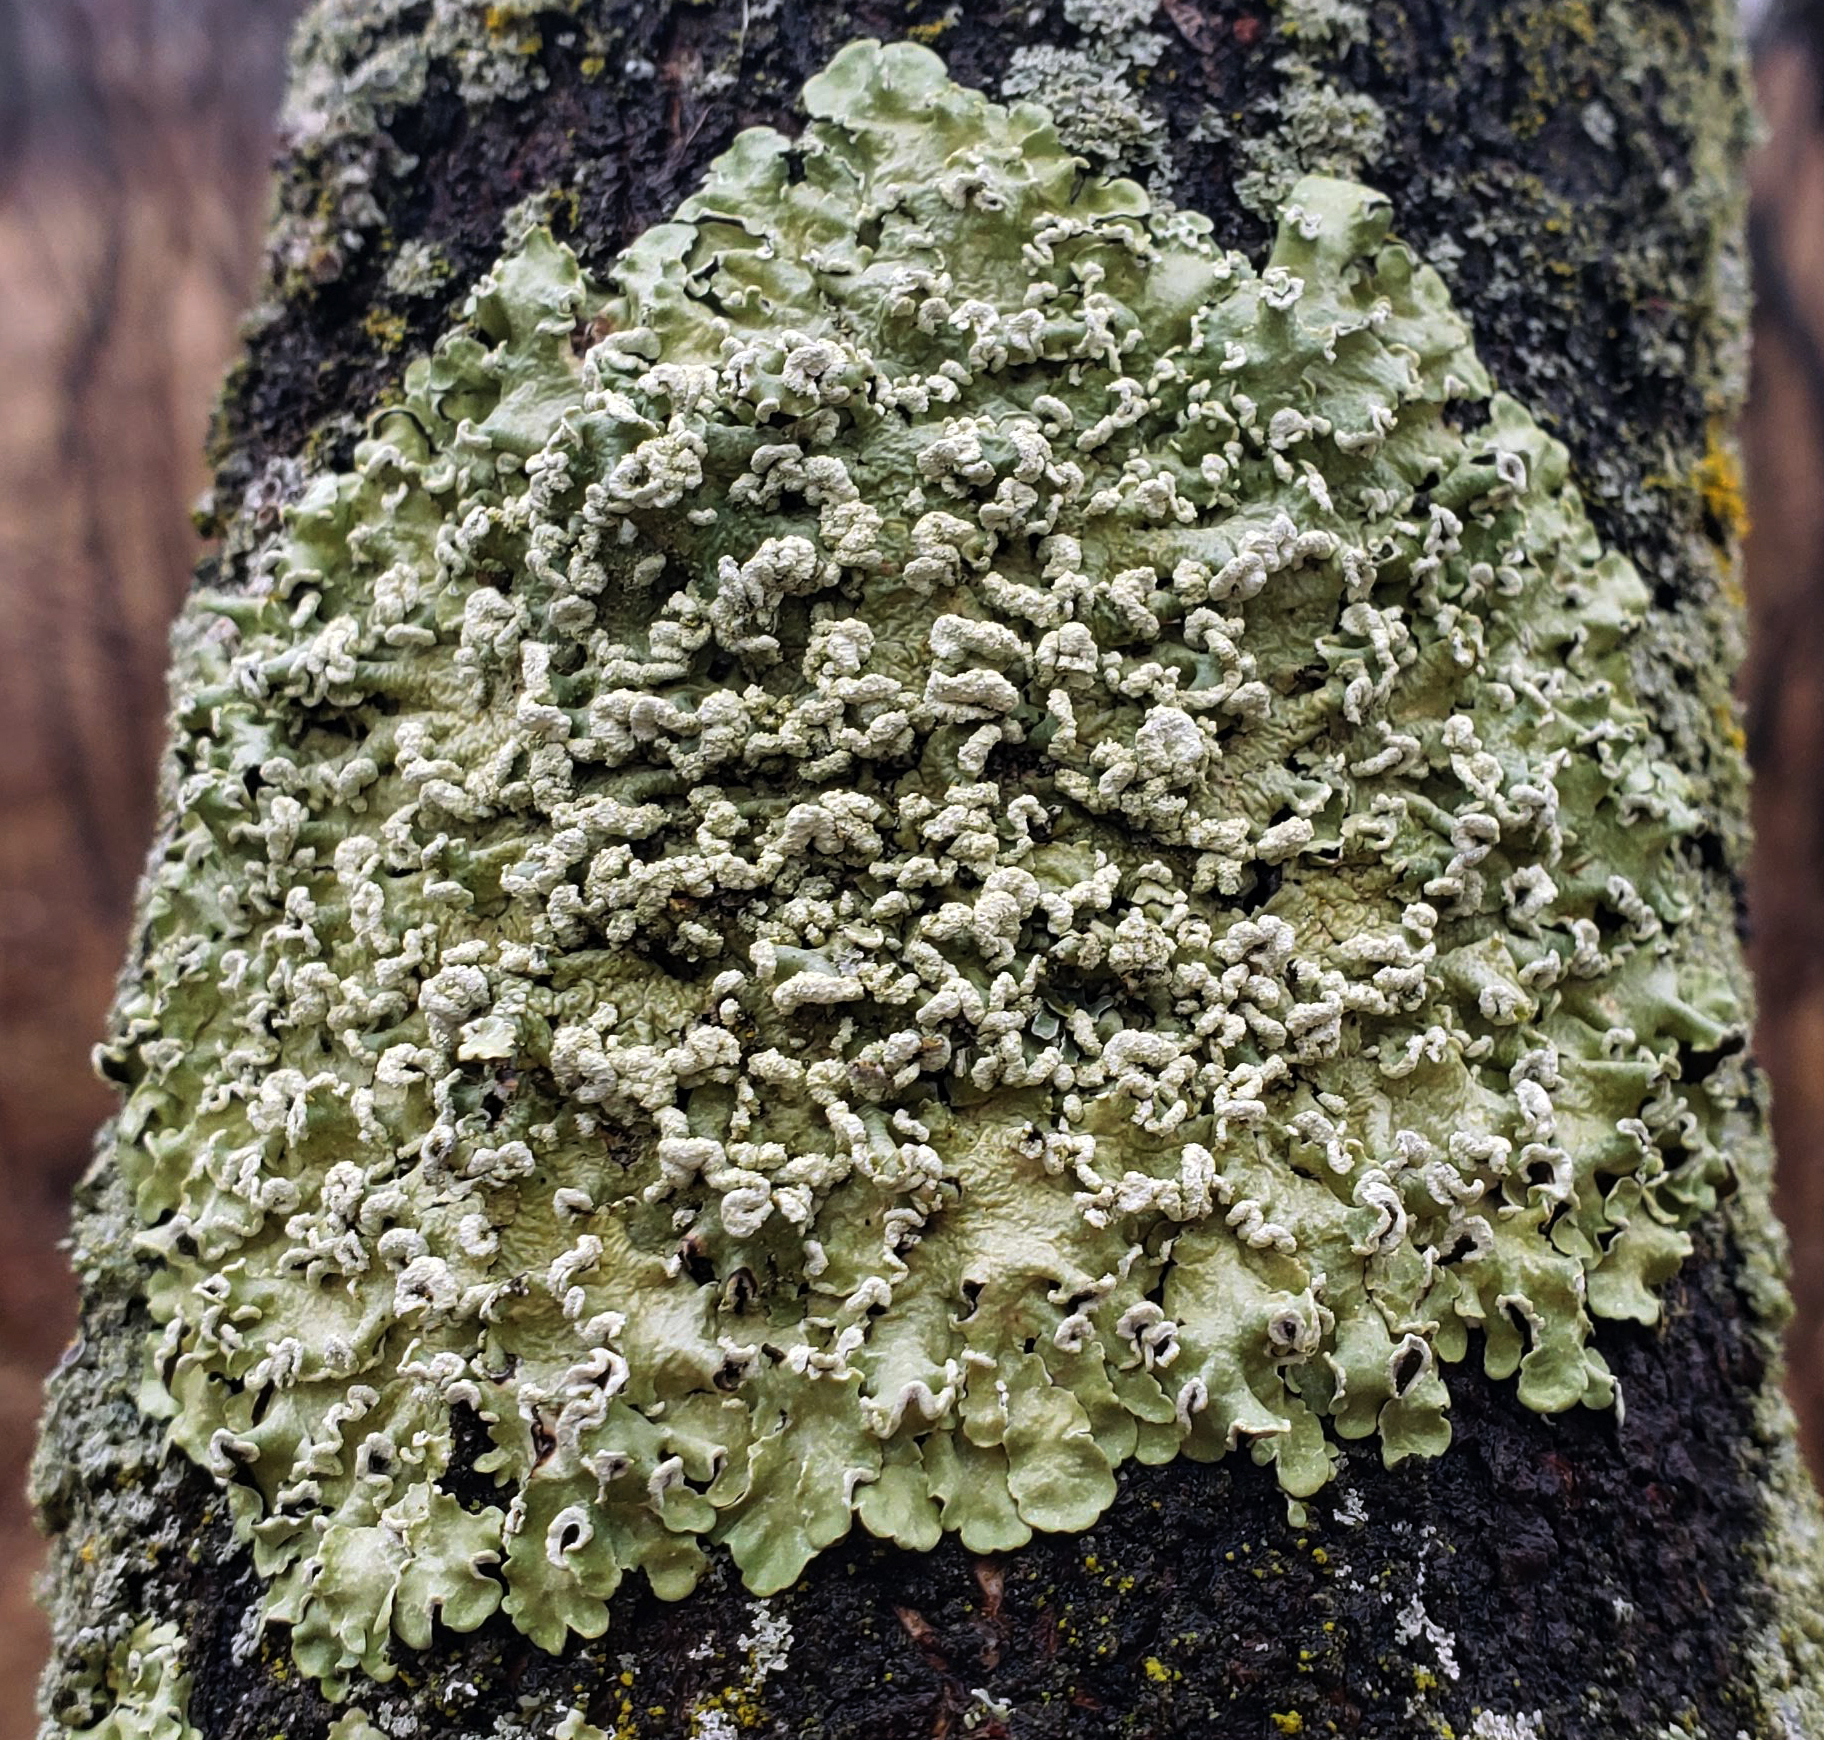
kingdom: Fungi
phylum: Ascomycota
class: Lecanoromycetes
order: Lecanorales
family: Parmeliaceae
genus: Flavopunctelia
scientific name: Flavopunctelia soredica
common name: Powder-edged speckled greenshield
